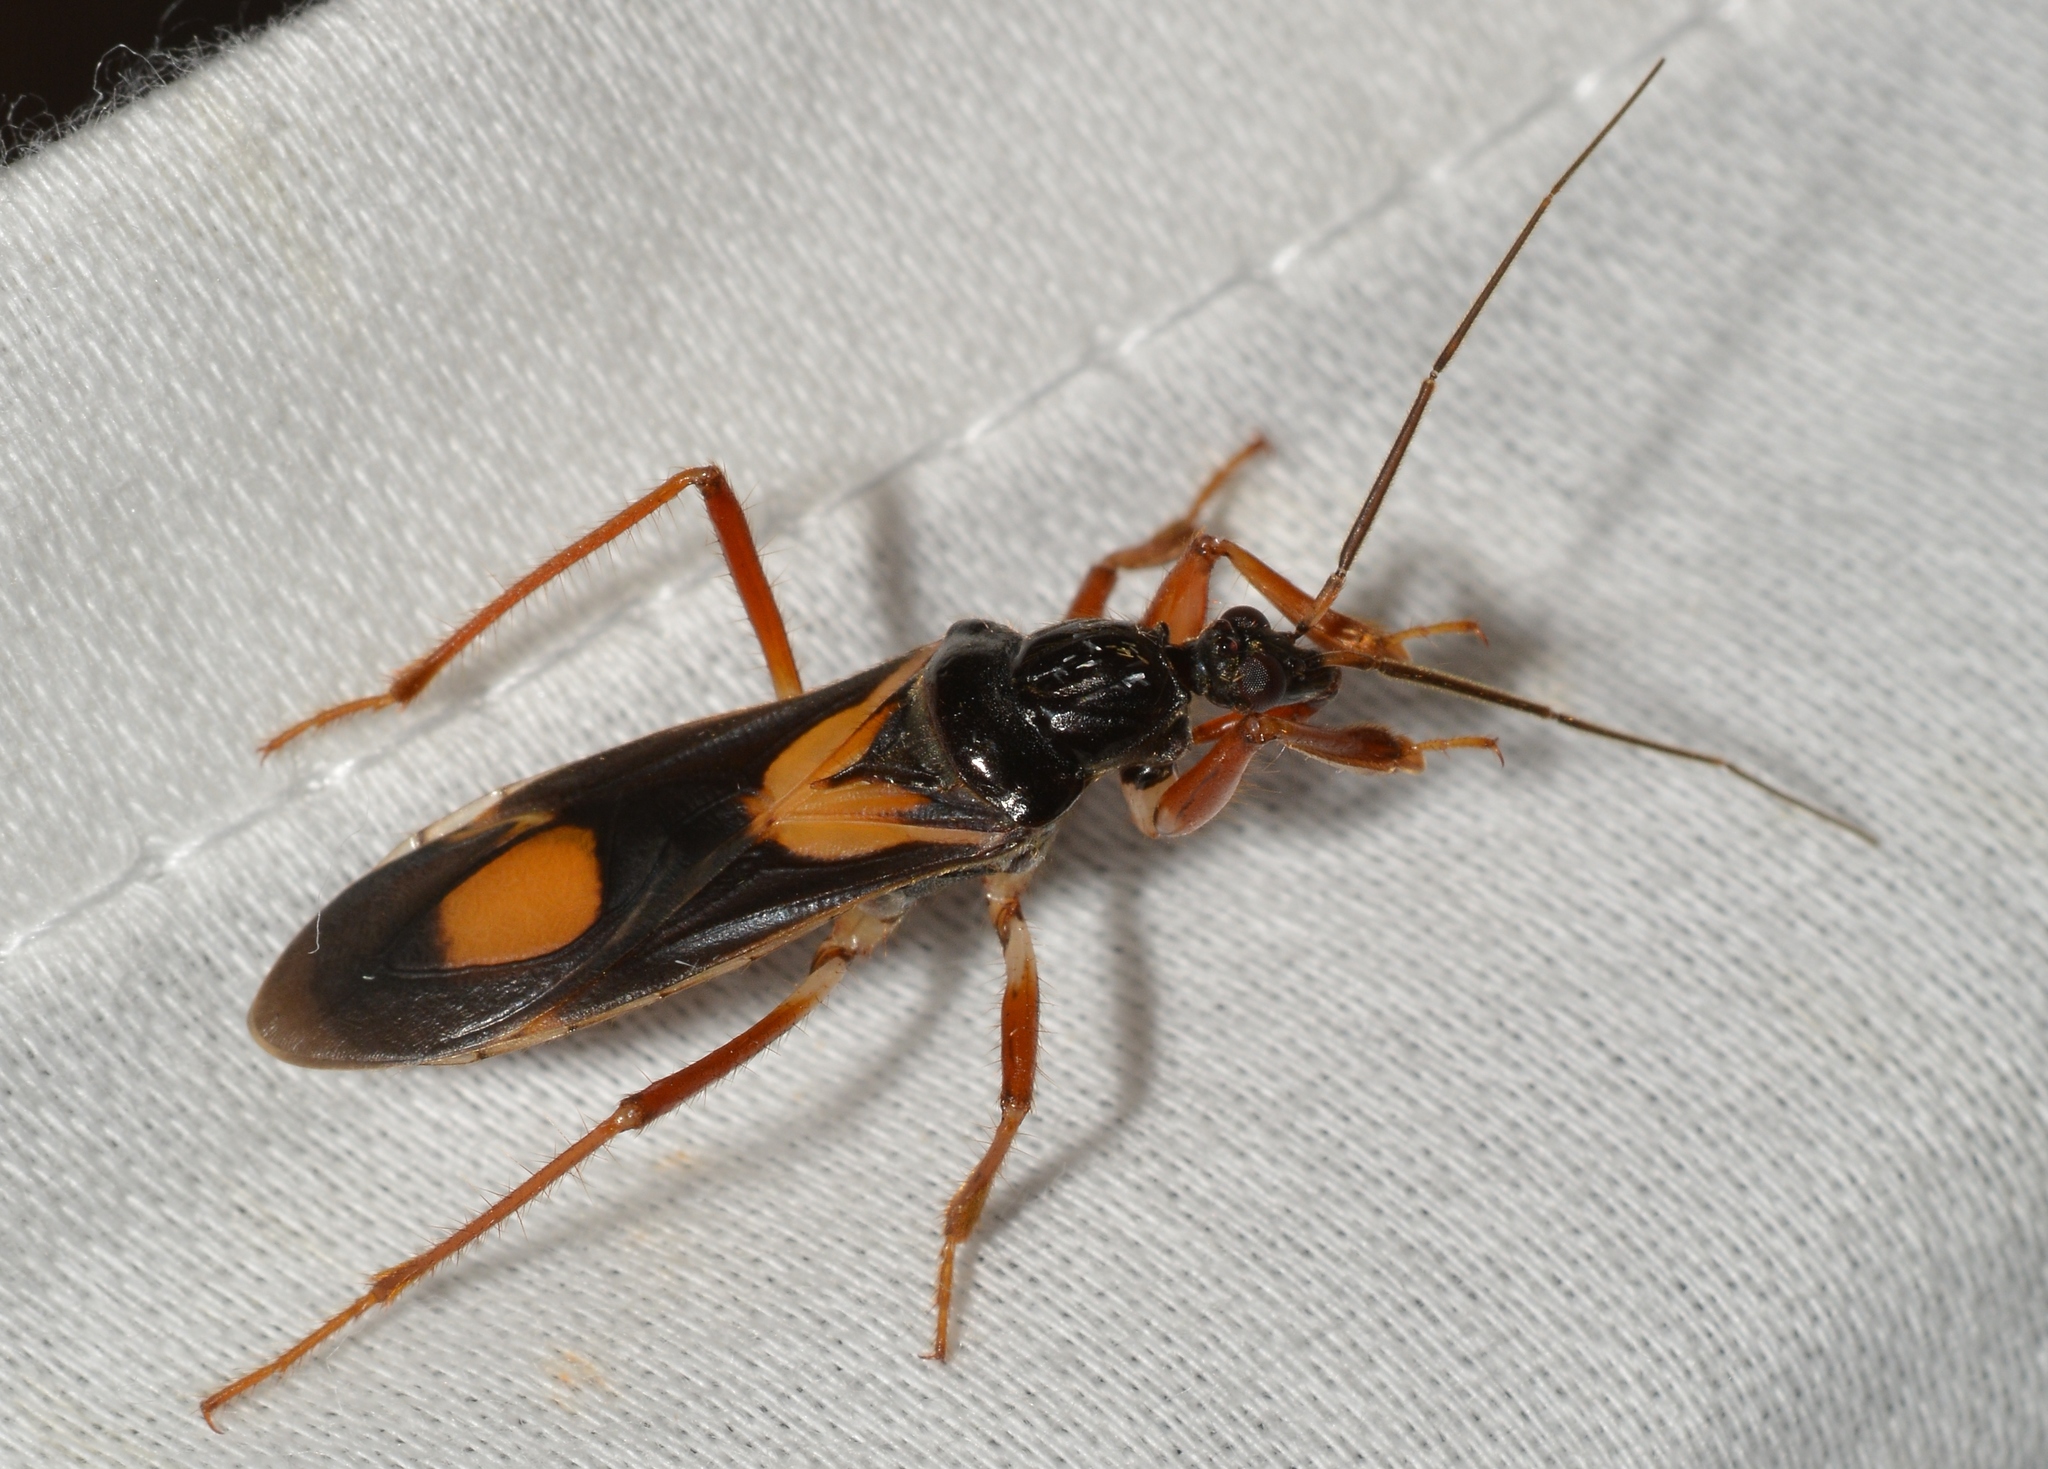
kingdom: Animalia
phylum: Arthropoda
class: Insecta
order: Hemiptera
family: Reduviidae
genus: Rasahus
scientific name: Rasahus hamatus
